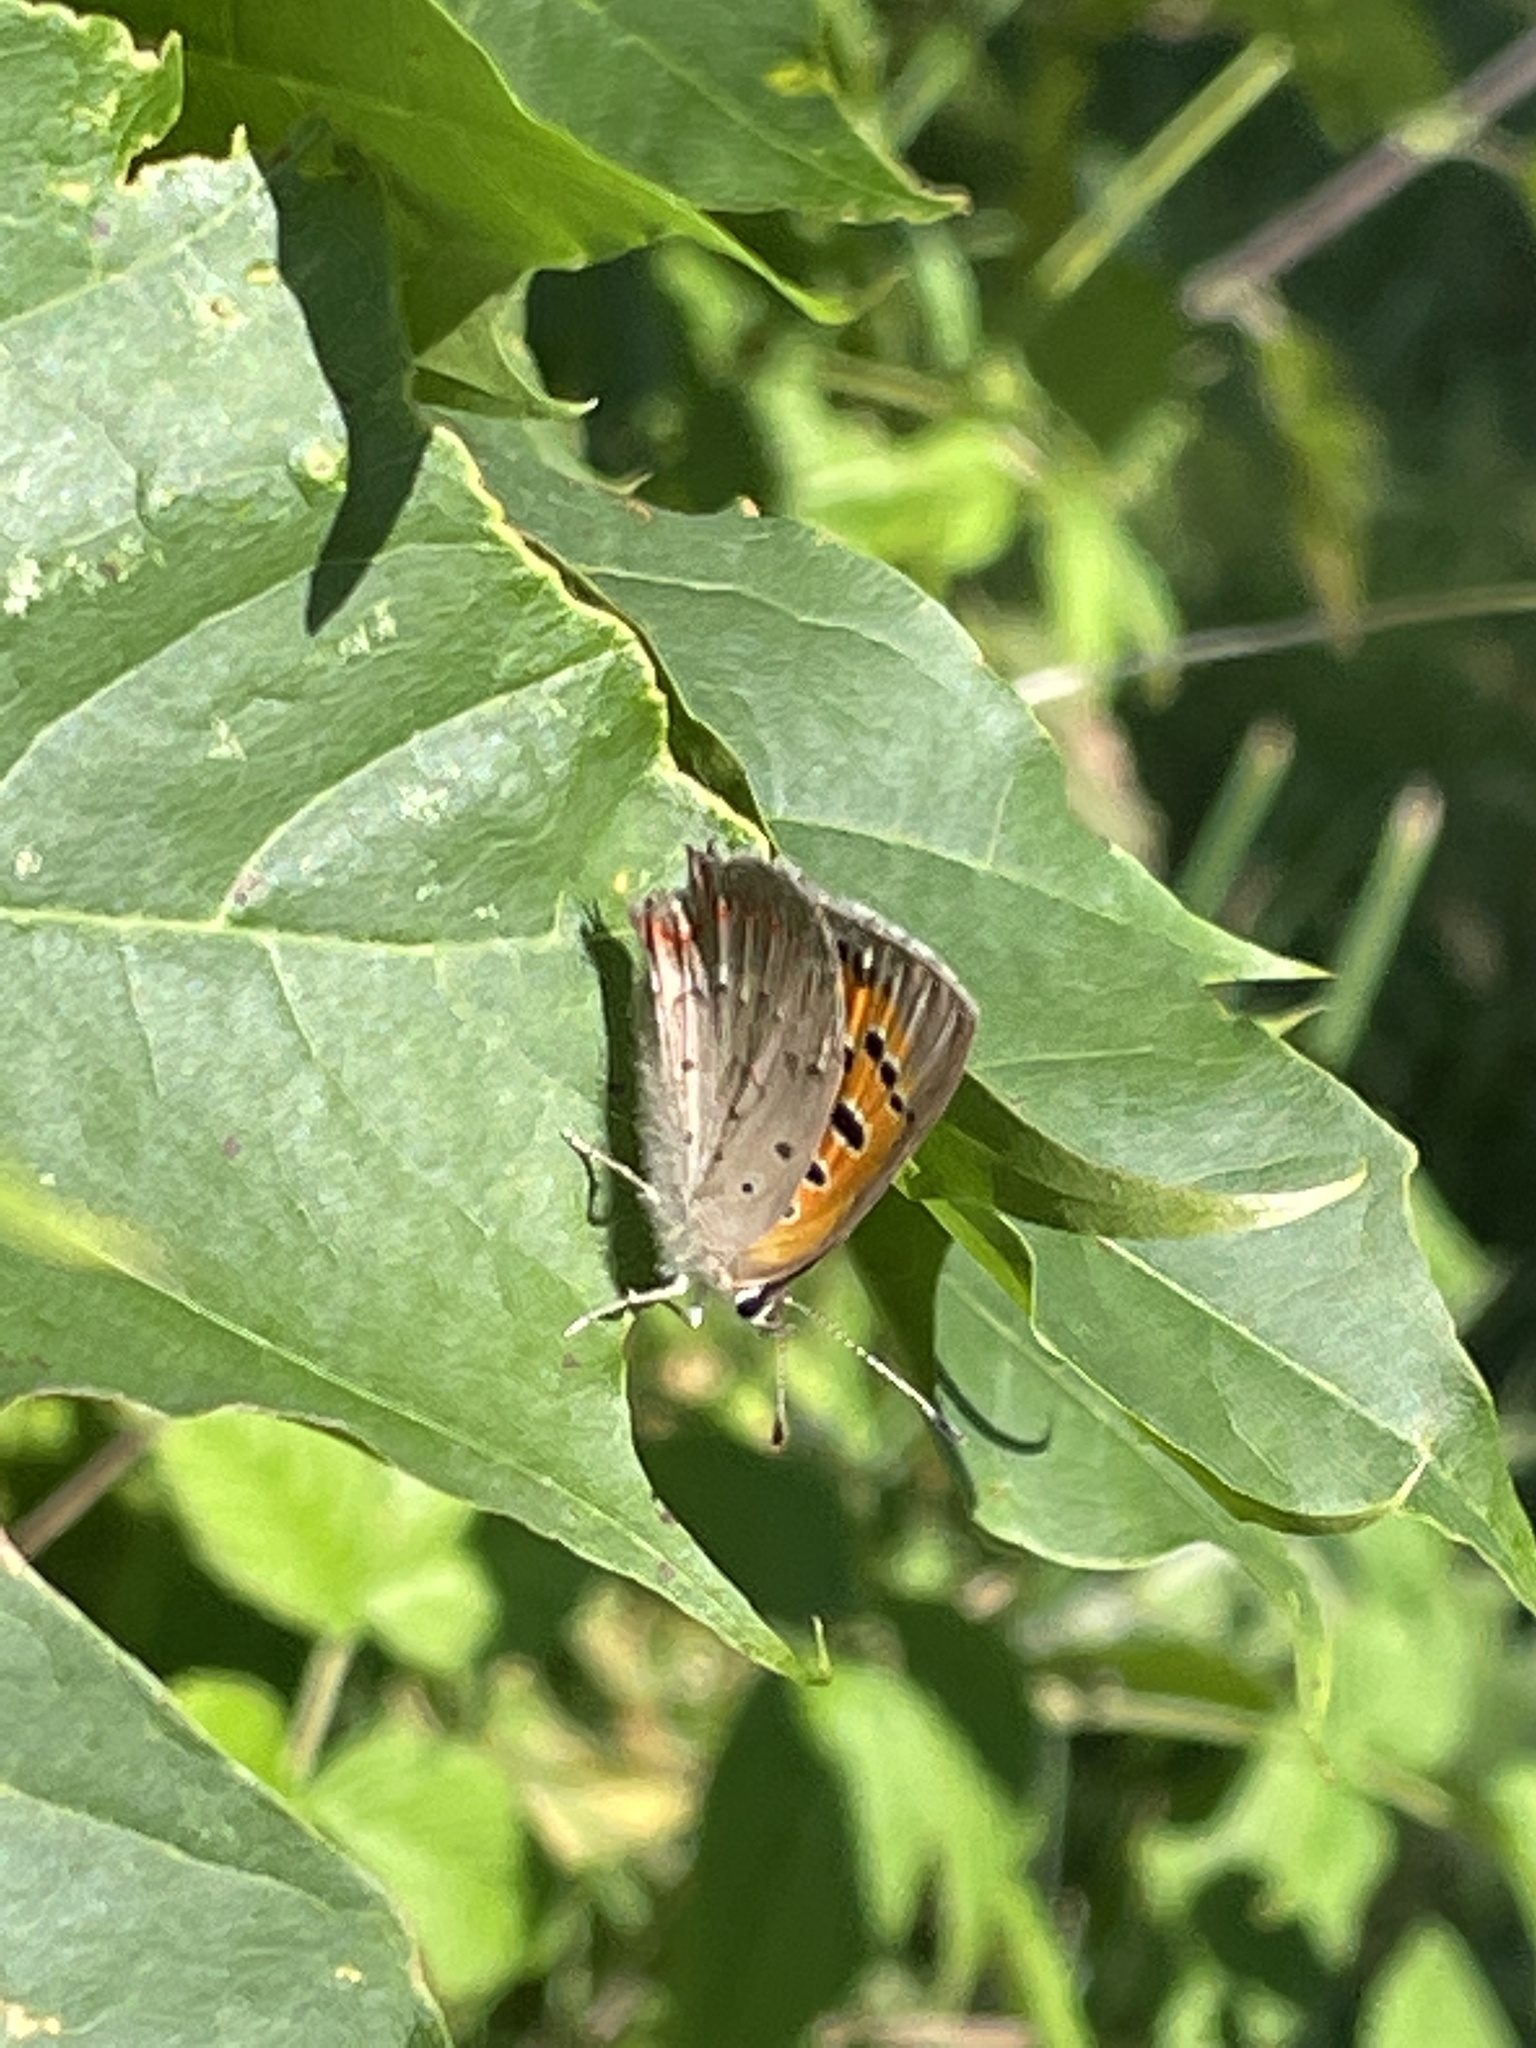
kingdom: Animalia
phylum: Arthropoda
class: Insecta
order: Lepidoptera
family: Lycaenidae
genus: Lycaena
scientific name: Lycaena phlaeas
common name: Small copper
